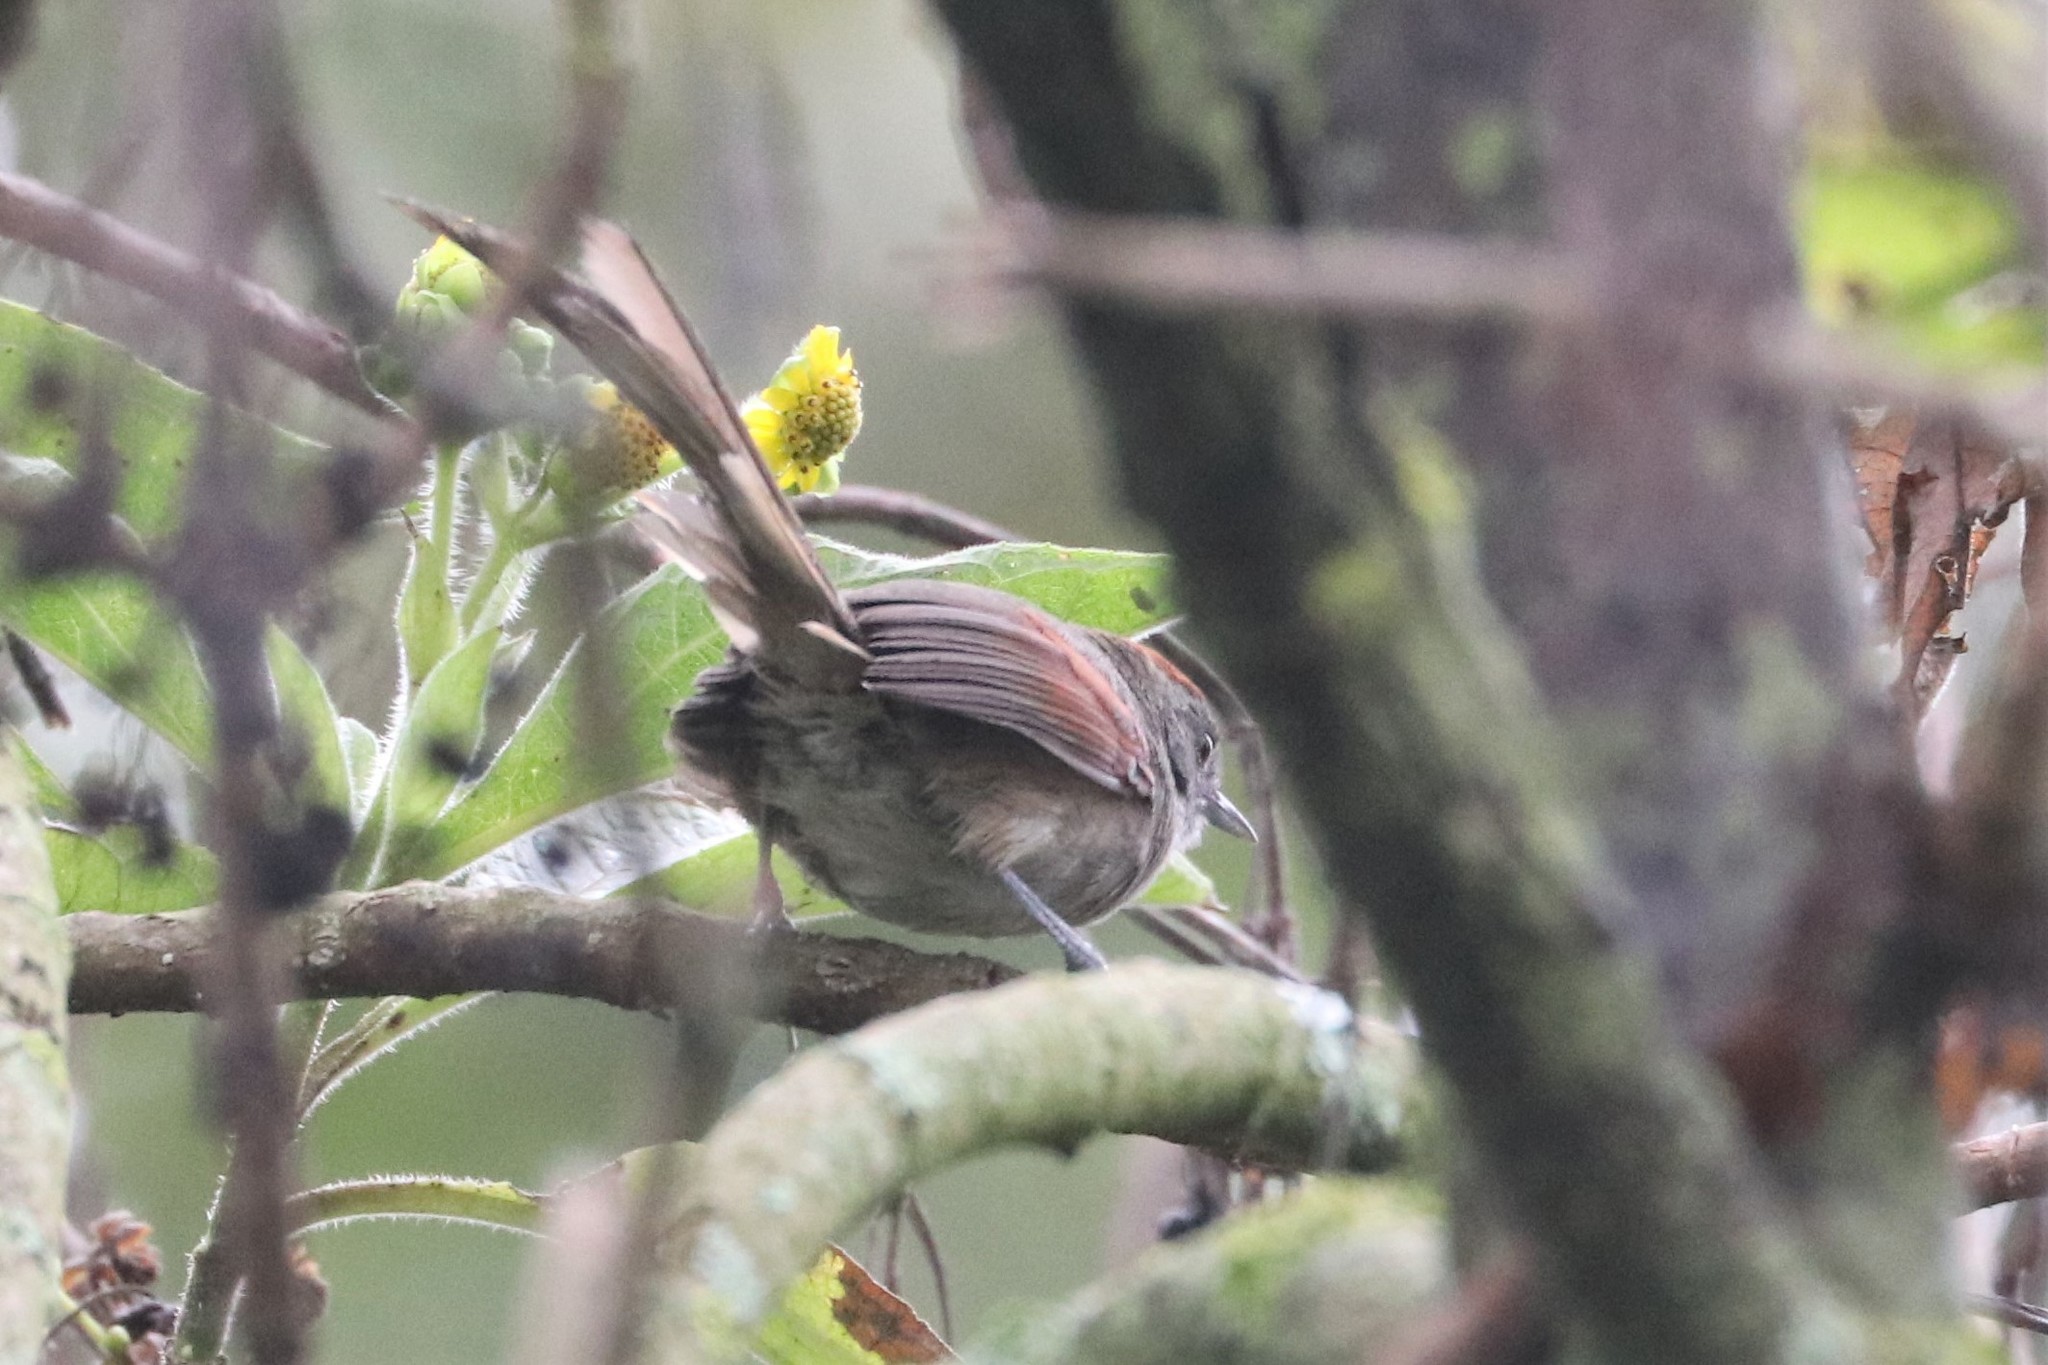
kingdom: Animalia
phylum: Chordata
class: Aves
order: Passeriformes
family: Furnariidae
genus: Synallaxis
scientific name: Synallaxis subpudica
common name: Silvery-throated spinetail
